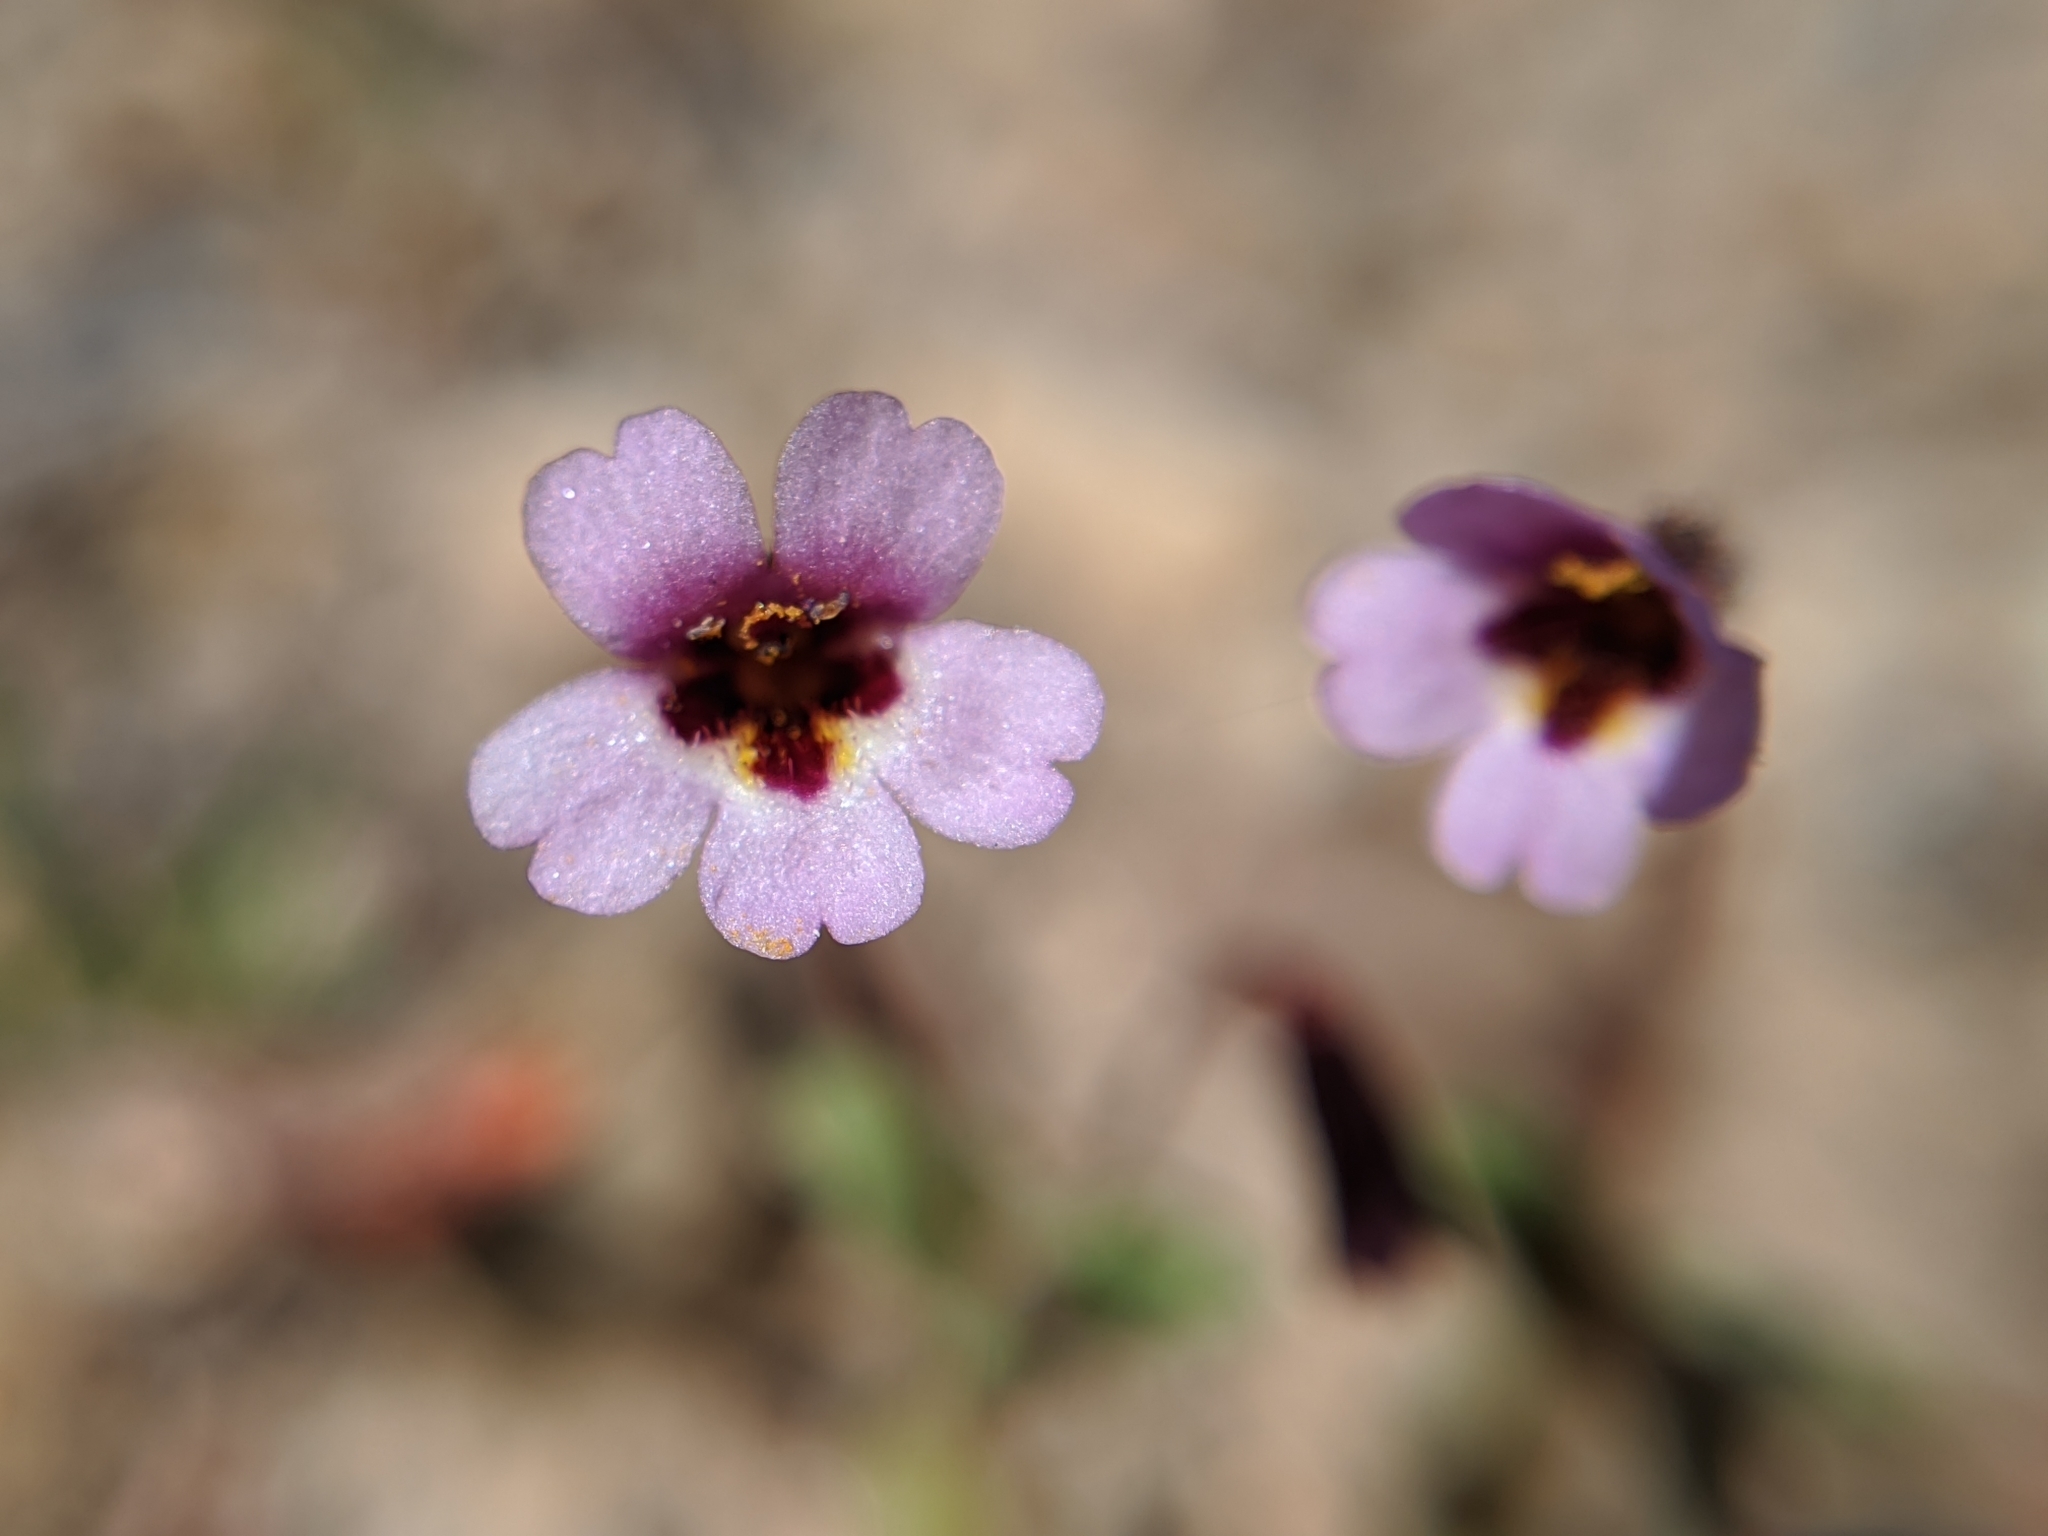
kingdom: Plantae
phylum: Tracheophyta
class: Magnoliopsida
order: Lamiales
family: Phrymaceae
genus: Erythranthe
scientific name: Erythranthe androsacea
